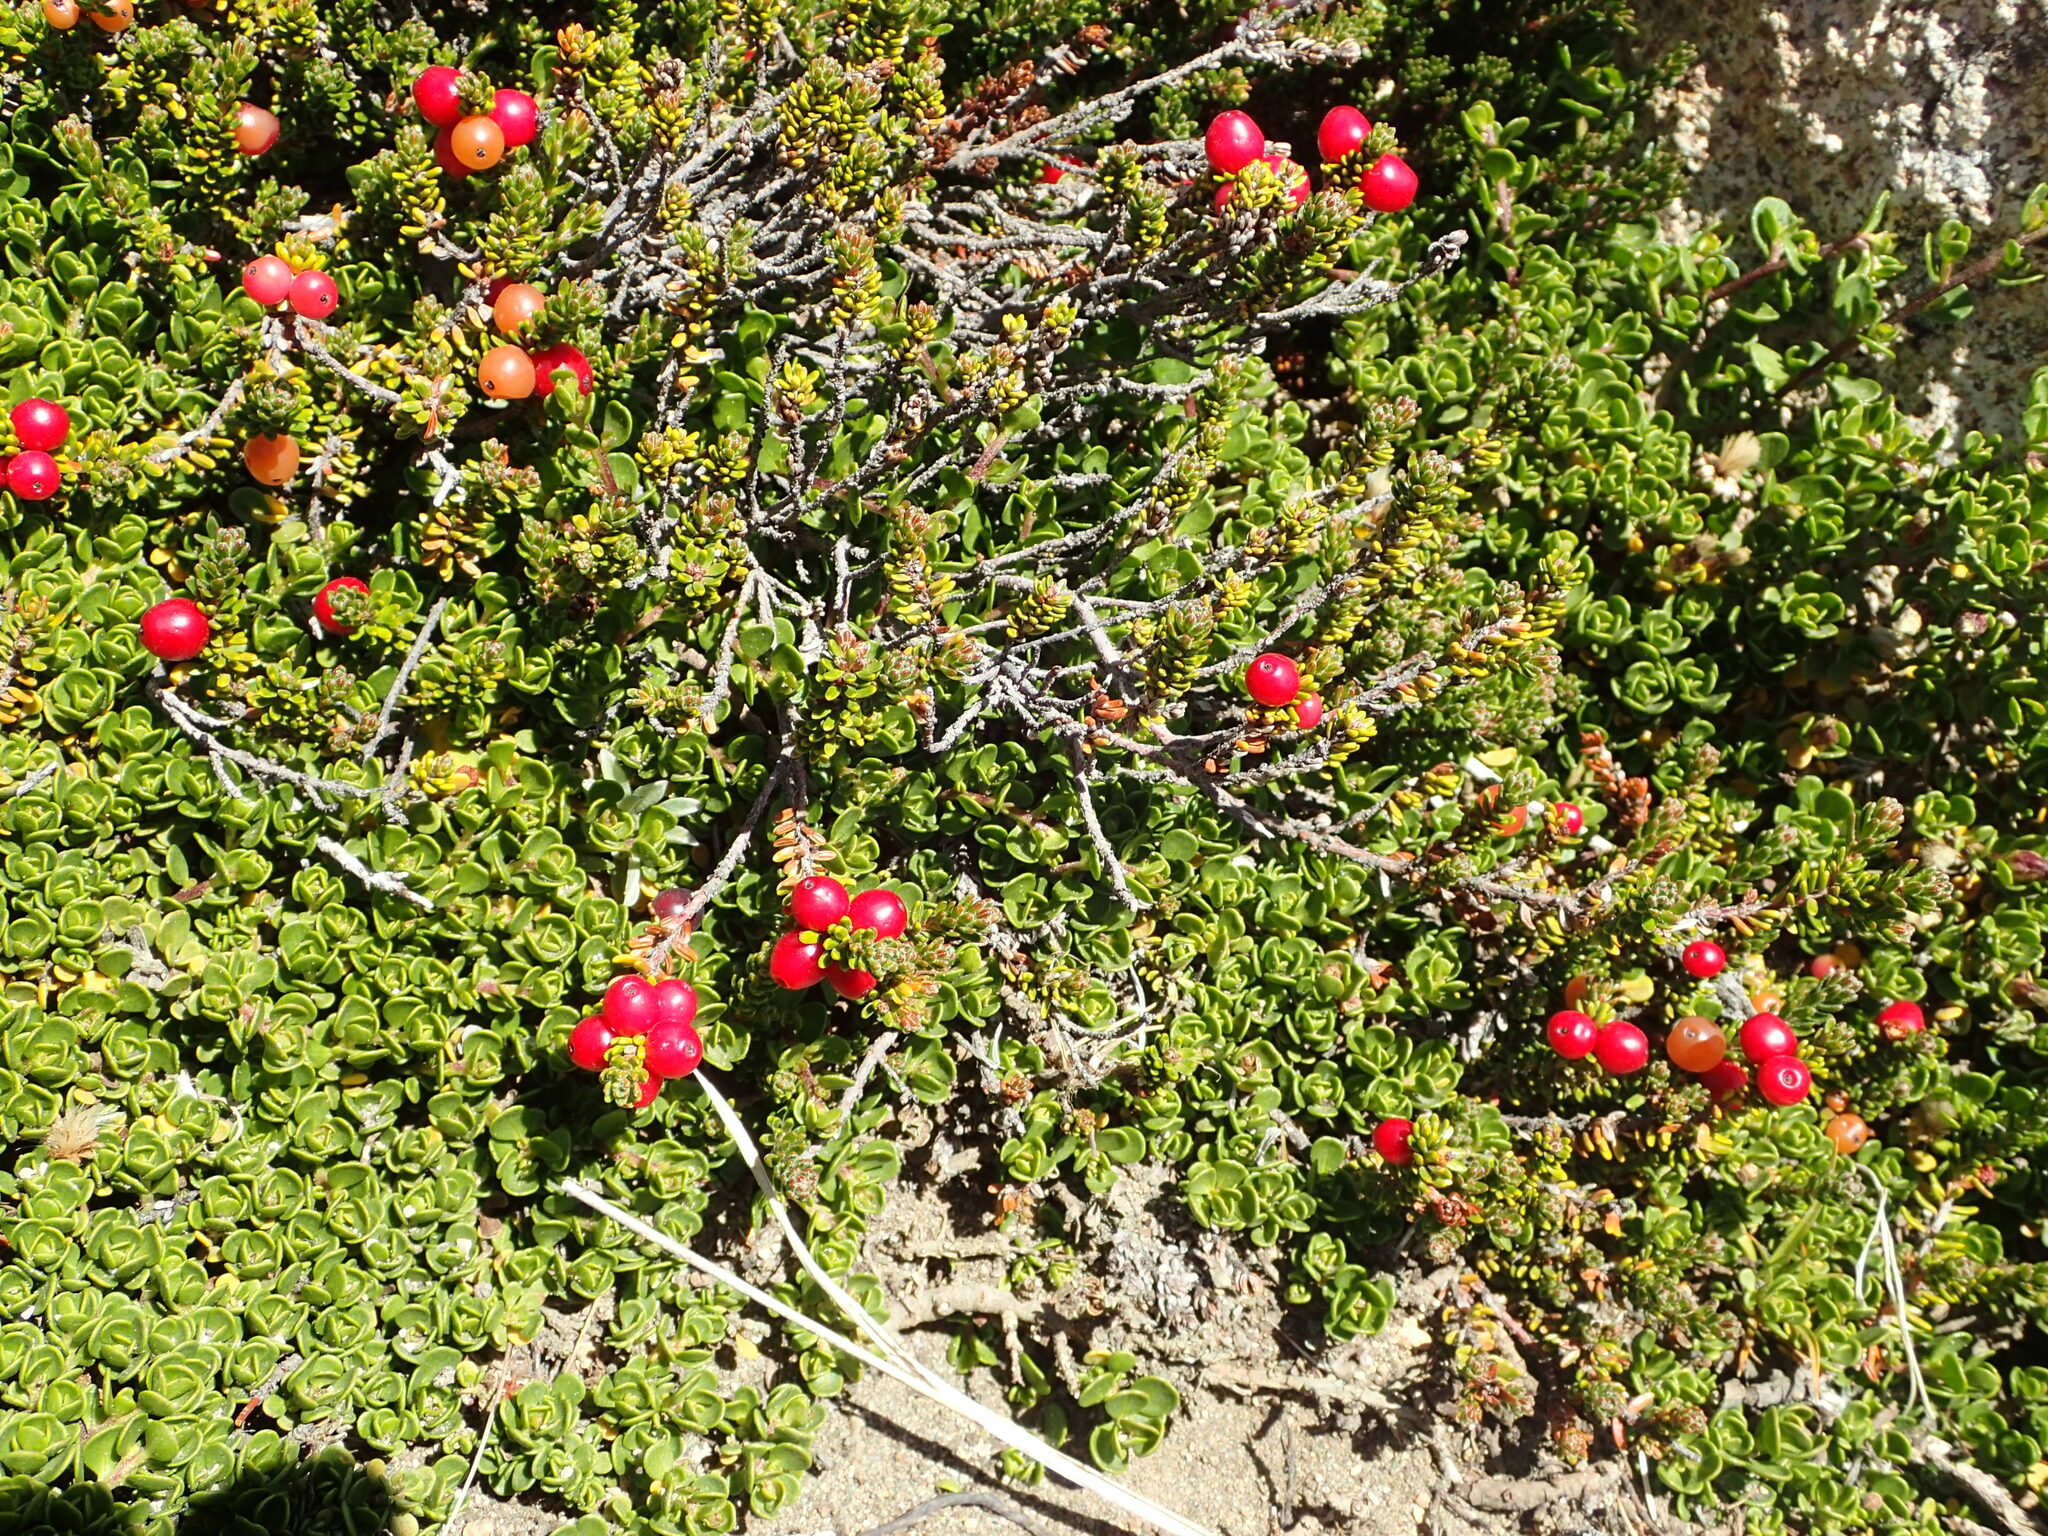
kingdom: Plantae
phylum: Tracheophyta
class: Magnoliopsida
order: Ericales
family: Ericaceae
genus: Empetrum
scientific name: Empetrum rubrum
